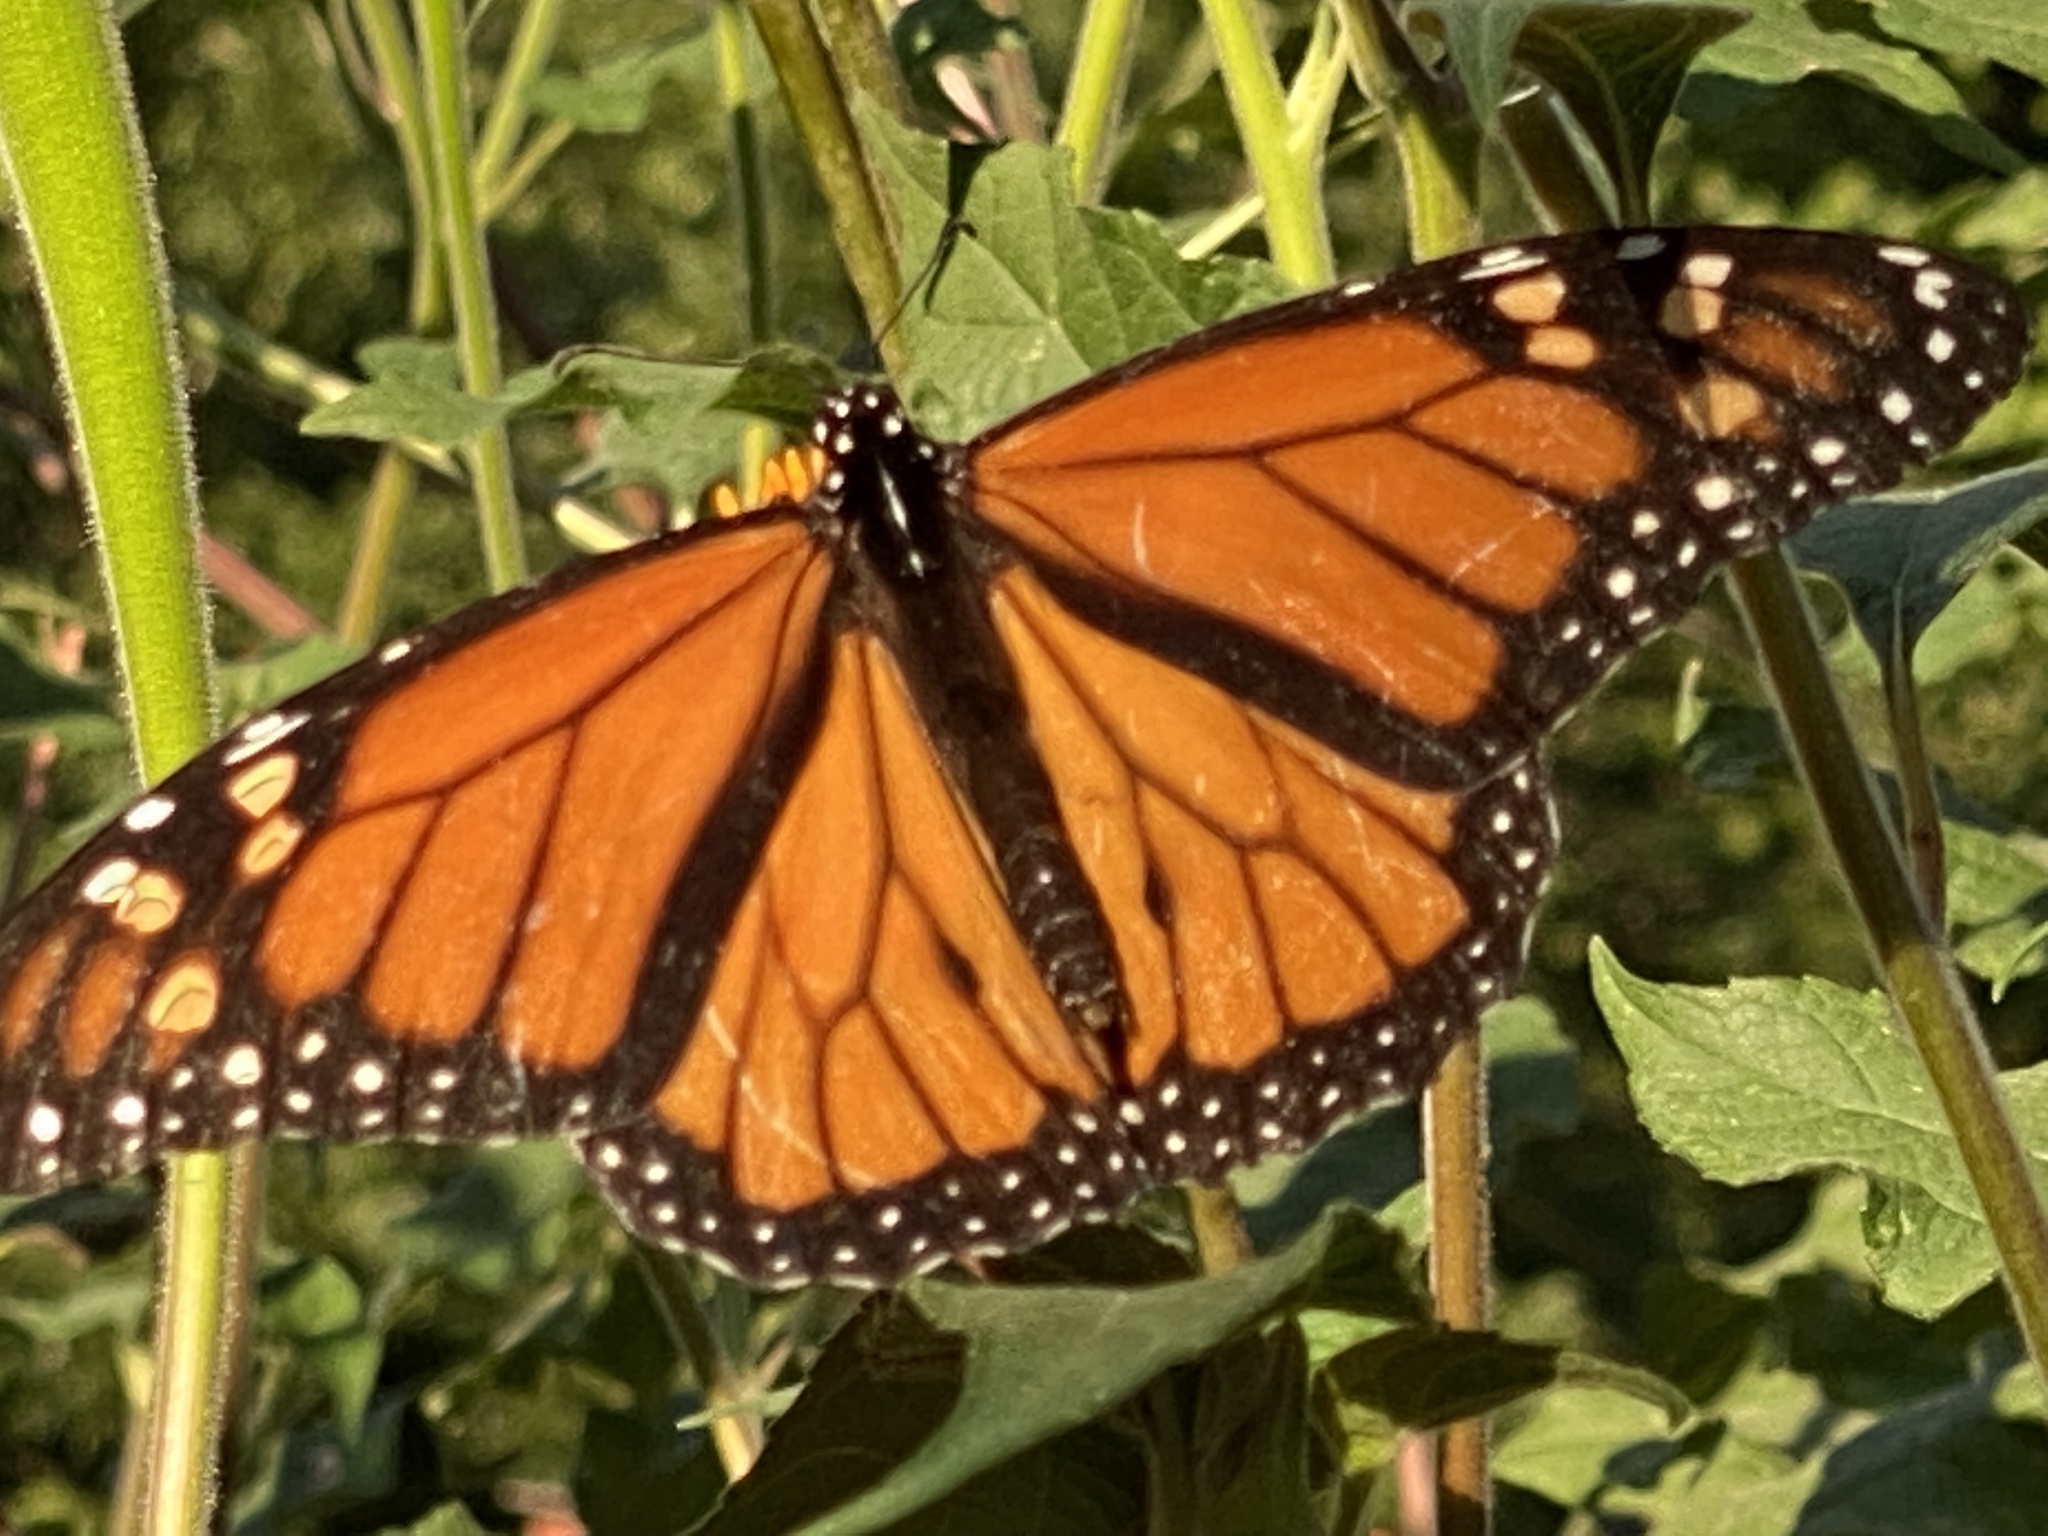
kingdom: Animalia
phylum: Arthropoda
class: Insecta
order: Lepidoptera
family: Nymphalidae
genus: Danaus
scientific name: Danaus plexippus
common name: Monarch
